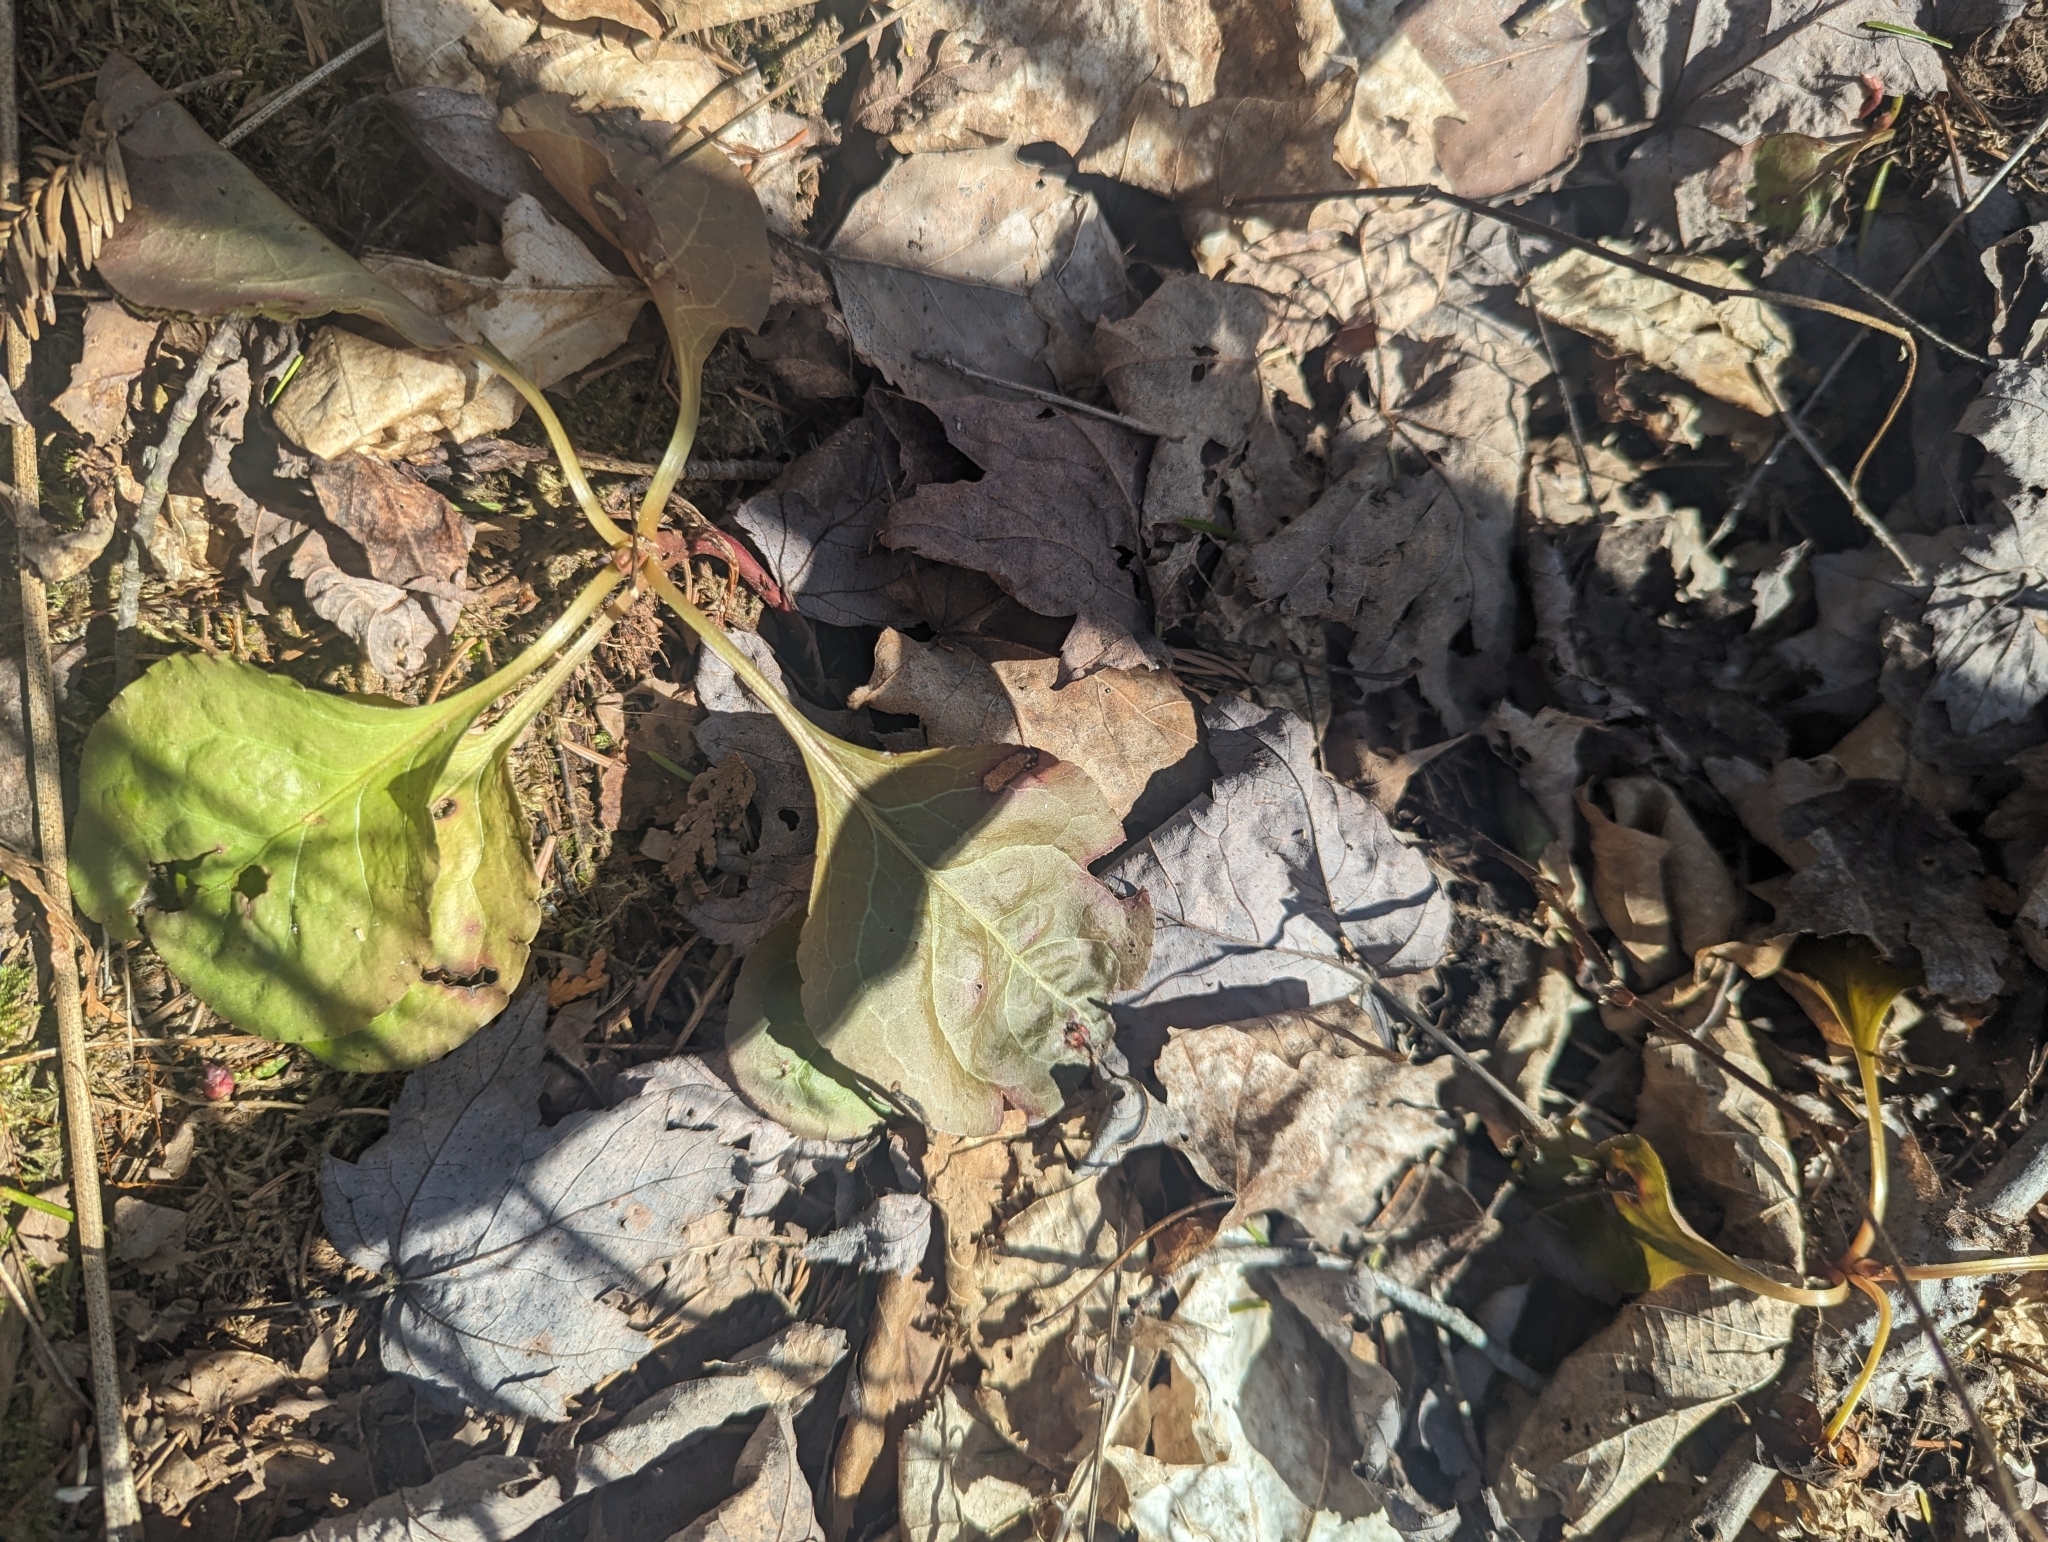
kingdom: Plantae
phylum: Tracheophyta
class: Magnoliopsida
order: Ericales
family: Ericaceae
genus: Pyrola
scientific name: Pyrola elliptica
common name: Shinleaf
